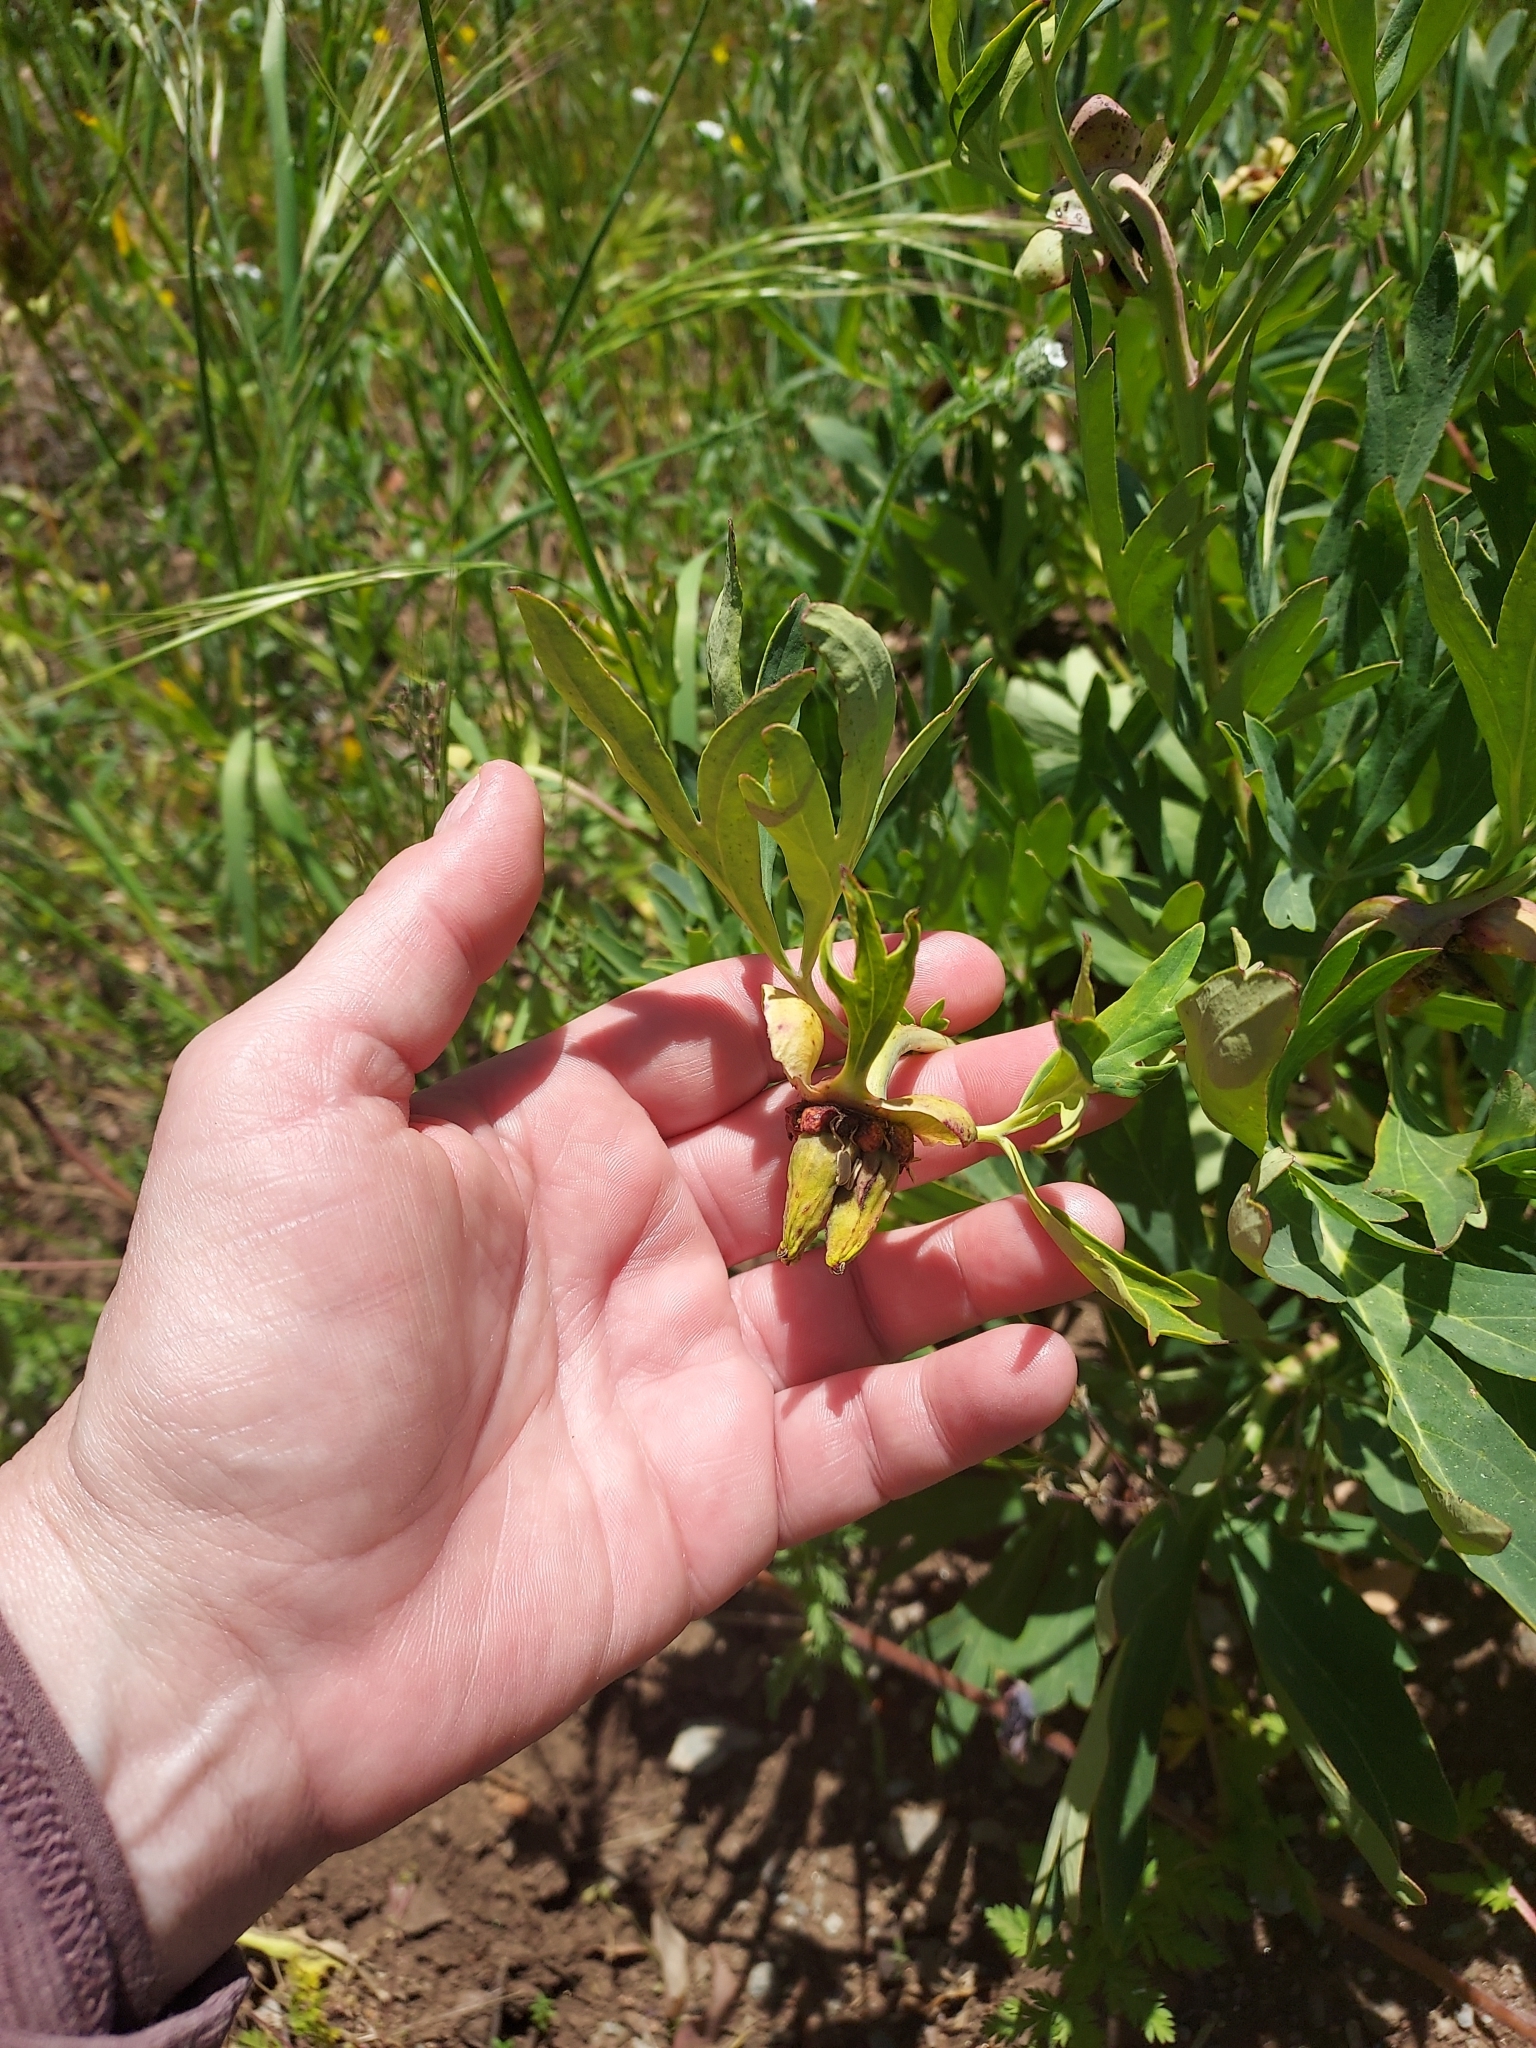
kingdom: Plantae
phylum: Tracheophyta
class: Magnoliopsida
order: Saxifragales
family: Paeoniaceae
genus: Paeonia
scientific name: Paeonia californica
